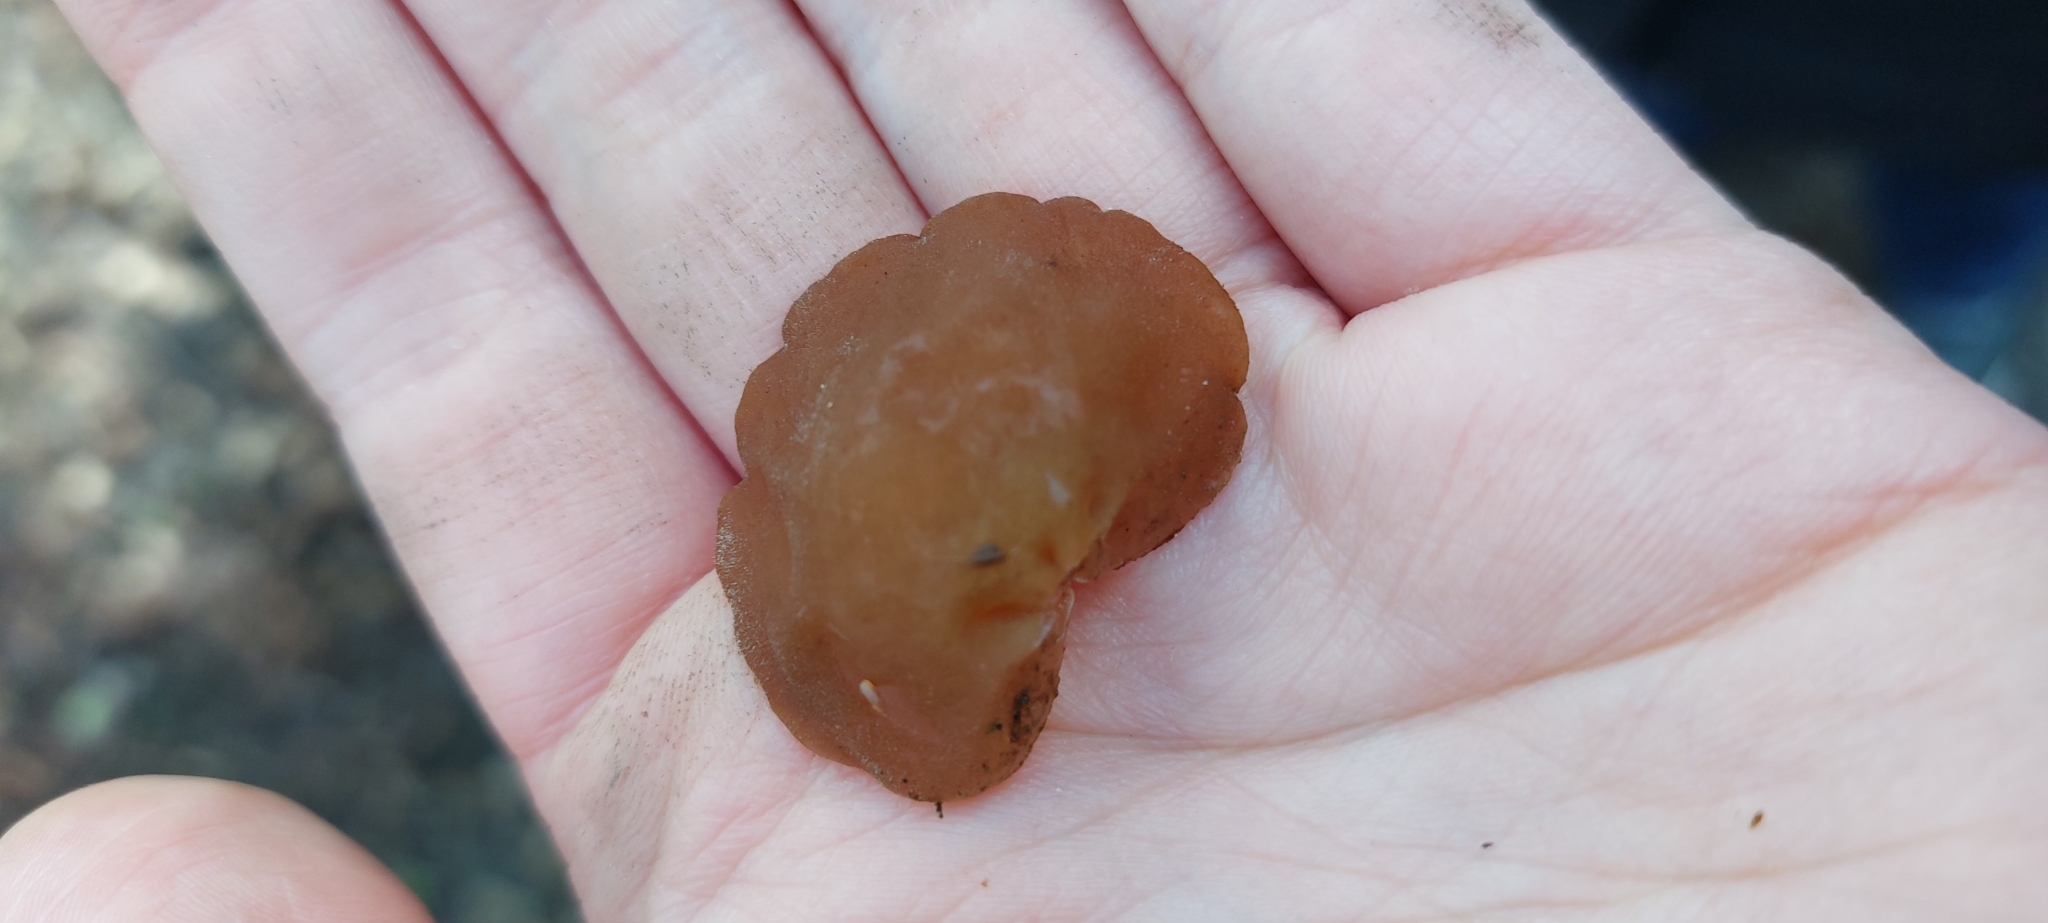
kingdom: Fungi
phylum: Basidiomycota
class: Agaricomycetes
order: Auriculariales
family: Auriculariaceae
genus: Auricularia
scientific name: Auricularia auricula-judae
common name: Jelly ear
